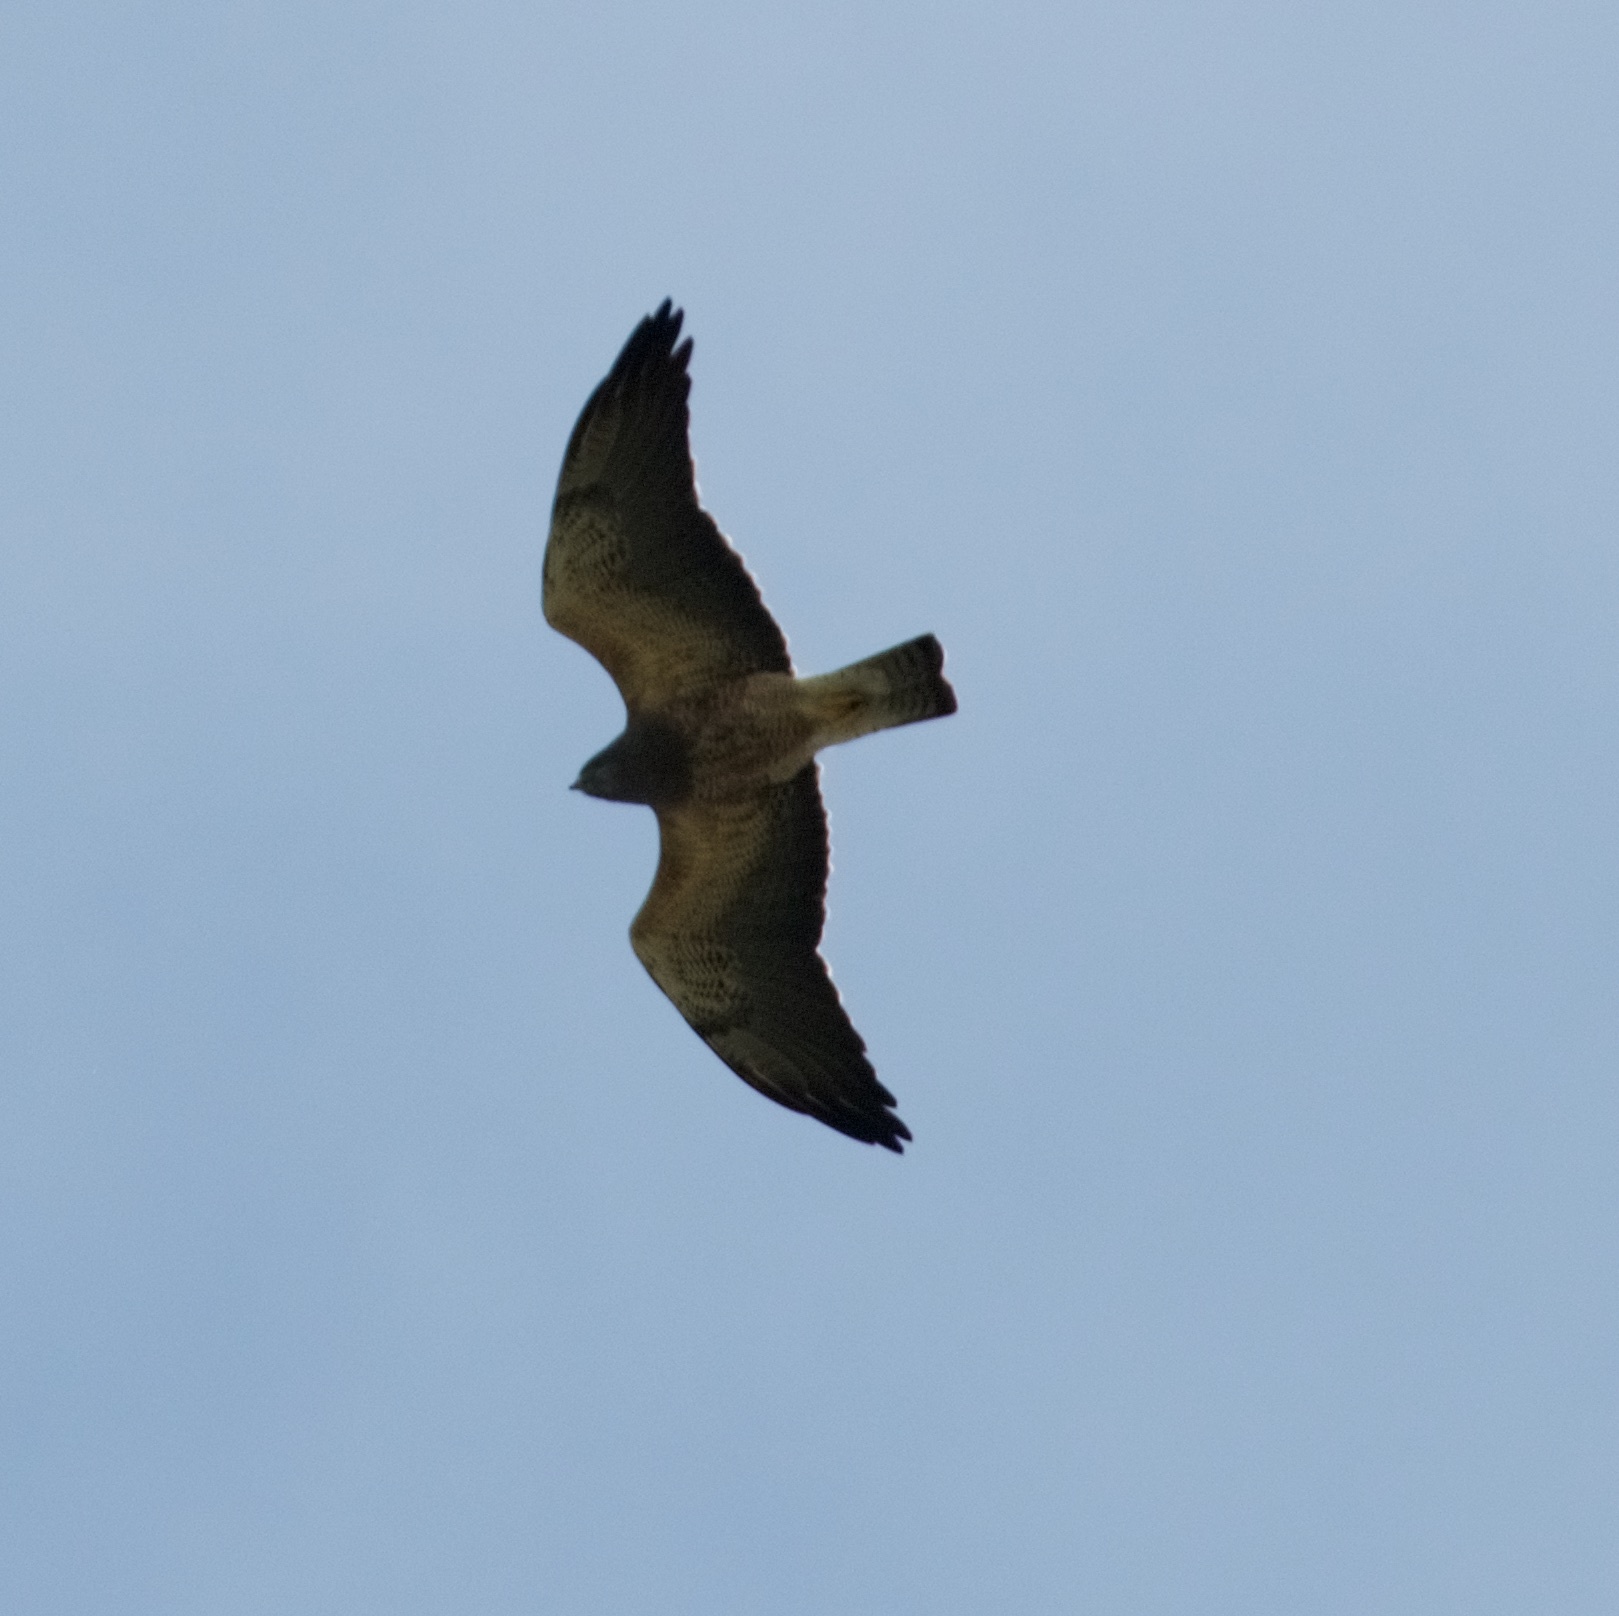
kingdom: Animalia
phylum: Chordata
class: Aves
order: Accipitriformes
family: Accipitridae
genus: Buteo
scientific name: Buteo swainsoni
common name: Swainson's hawk
